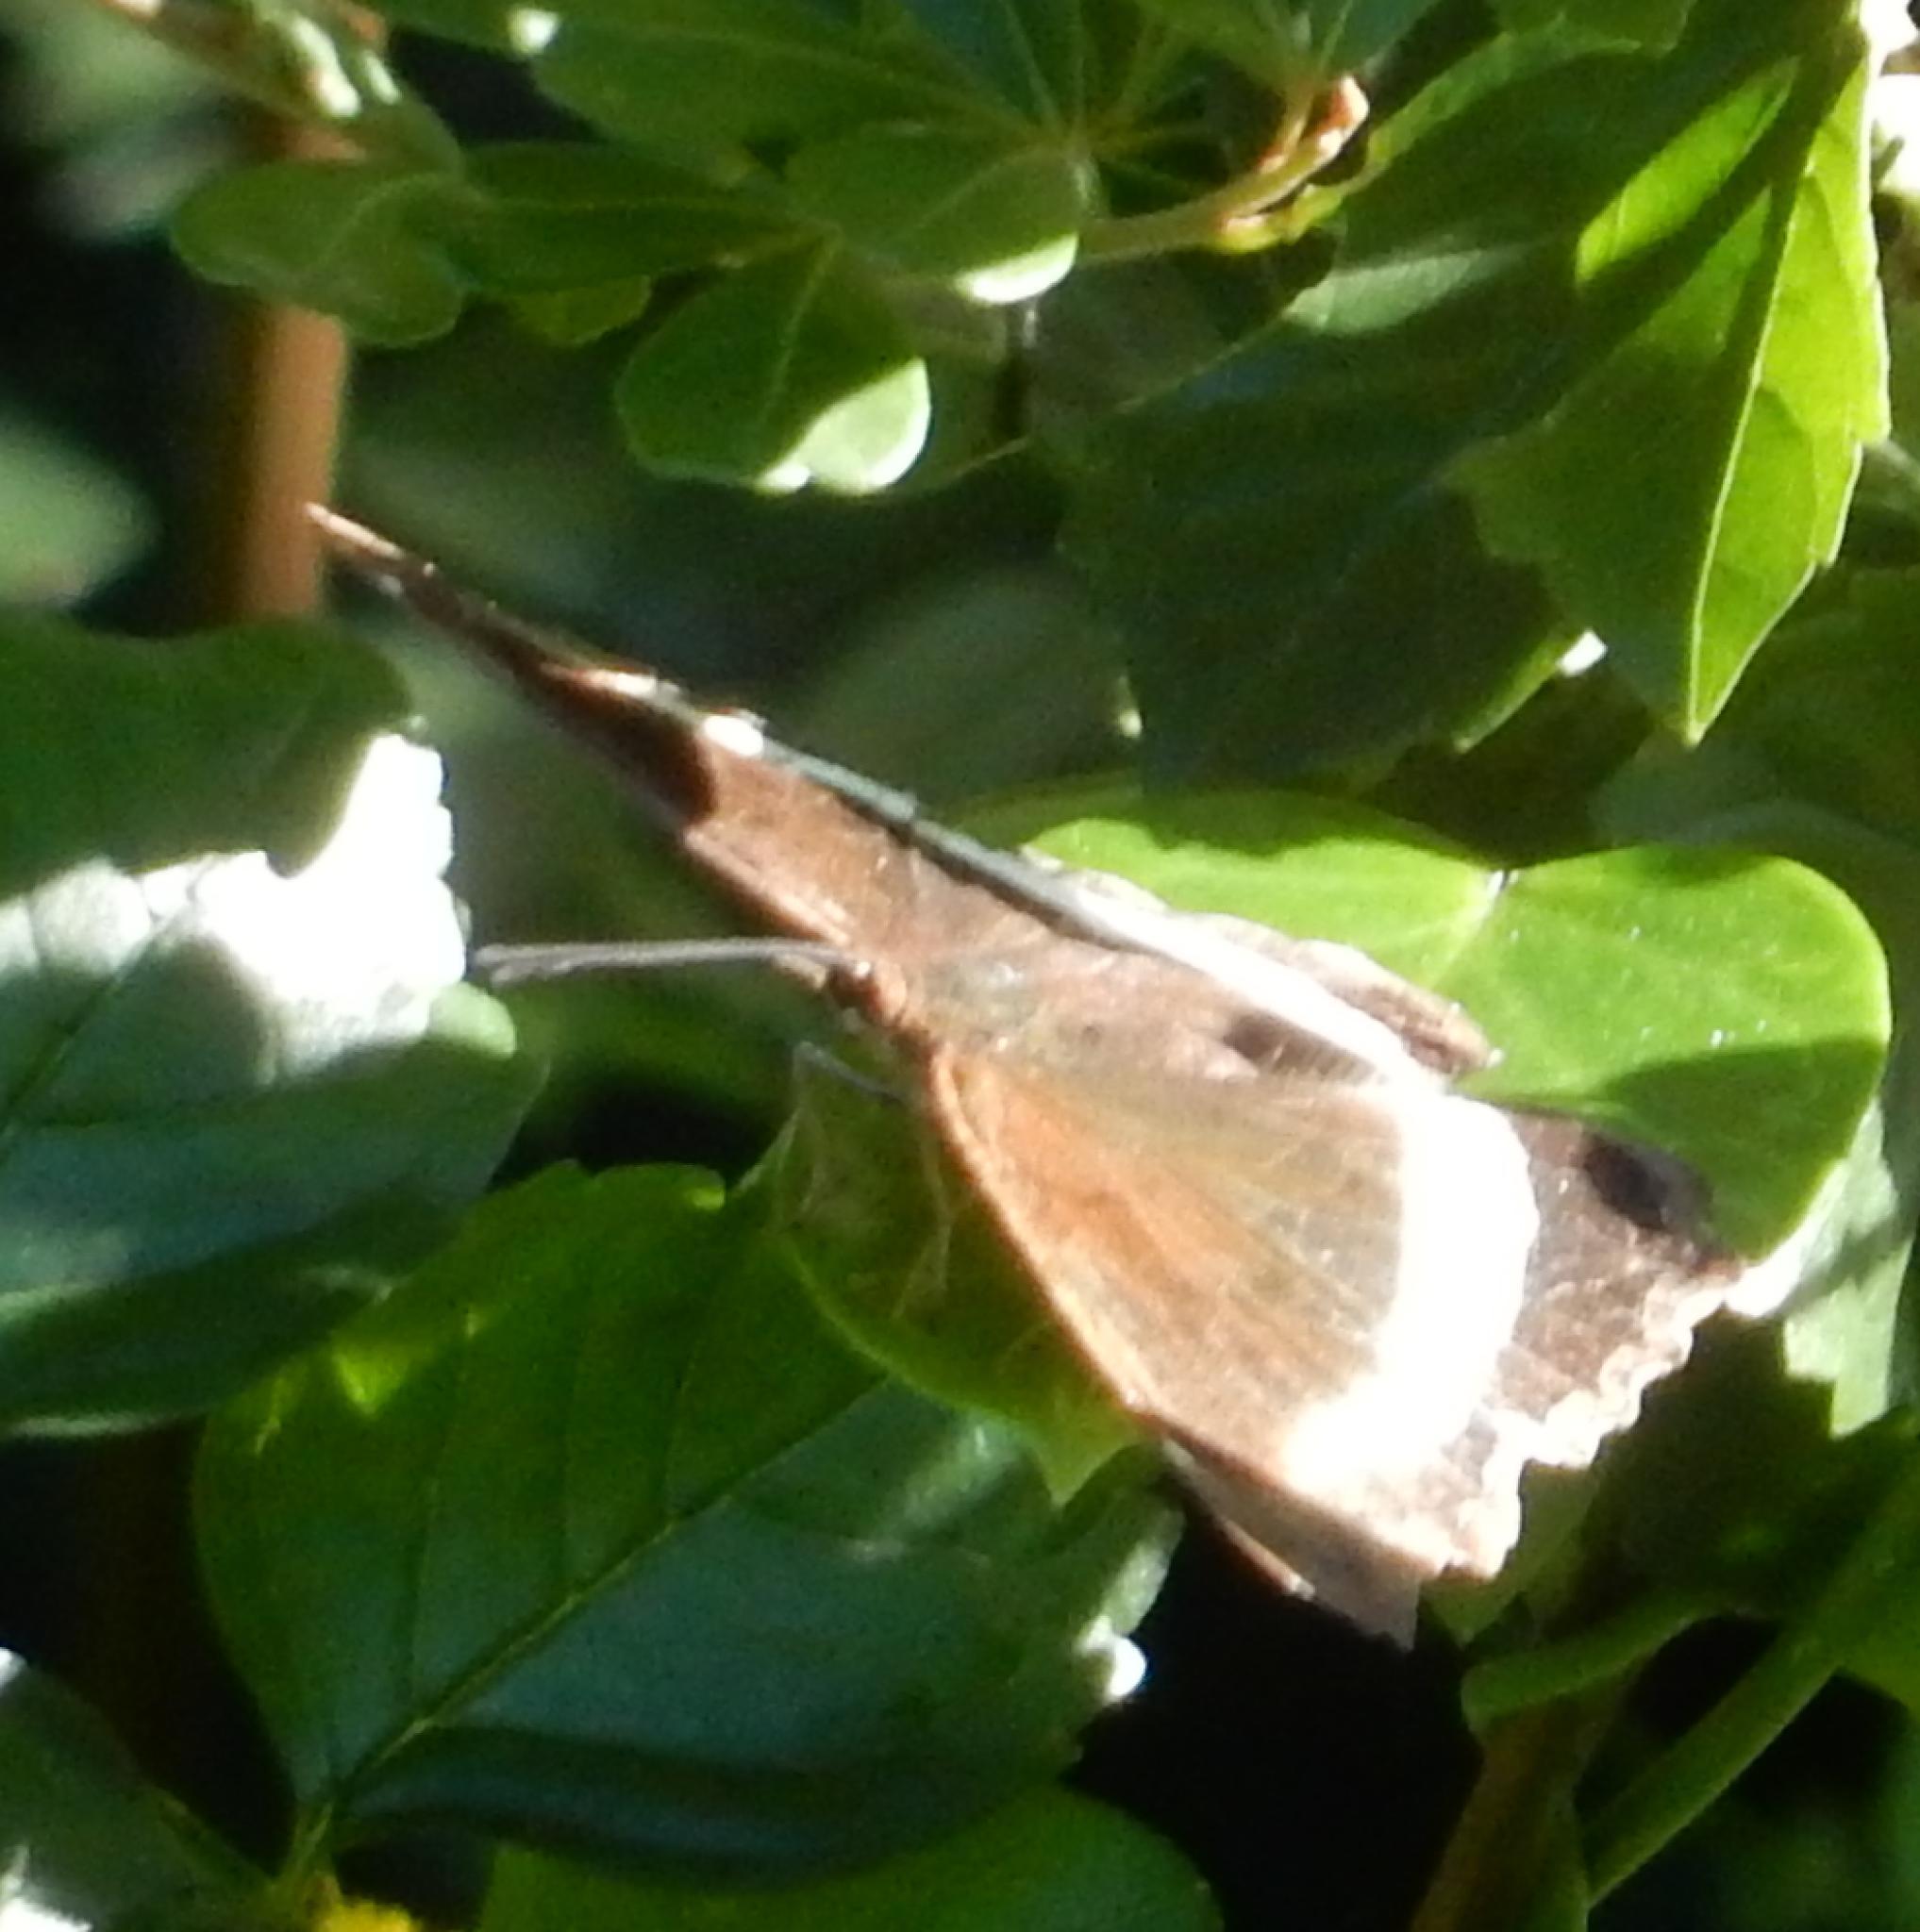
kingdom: Animalia
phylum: Arthropoda
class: Insecta
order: Lepidoptera
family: Nymphalidae
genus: Eurytela
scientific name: Eurytela hiarbas
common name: Pied piper
